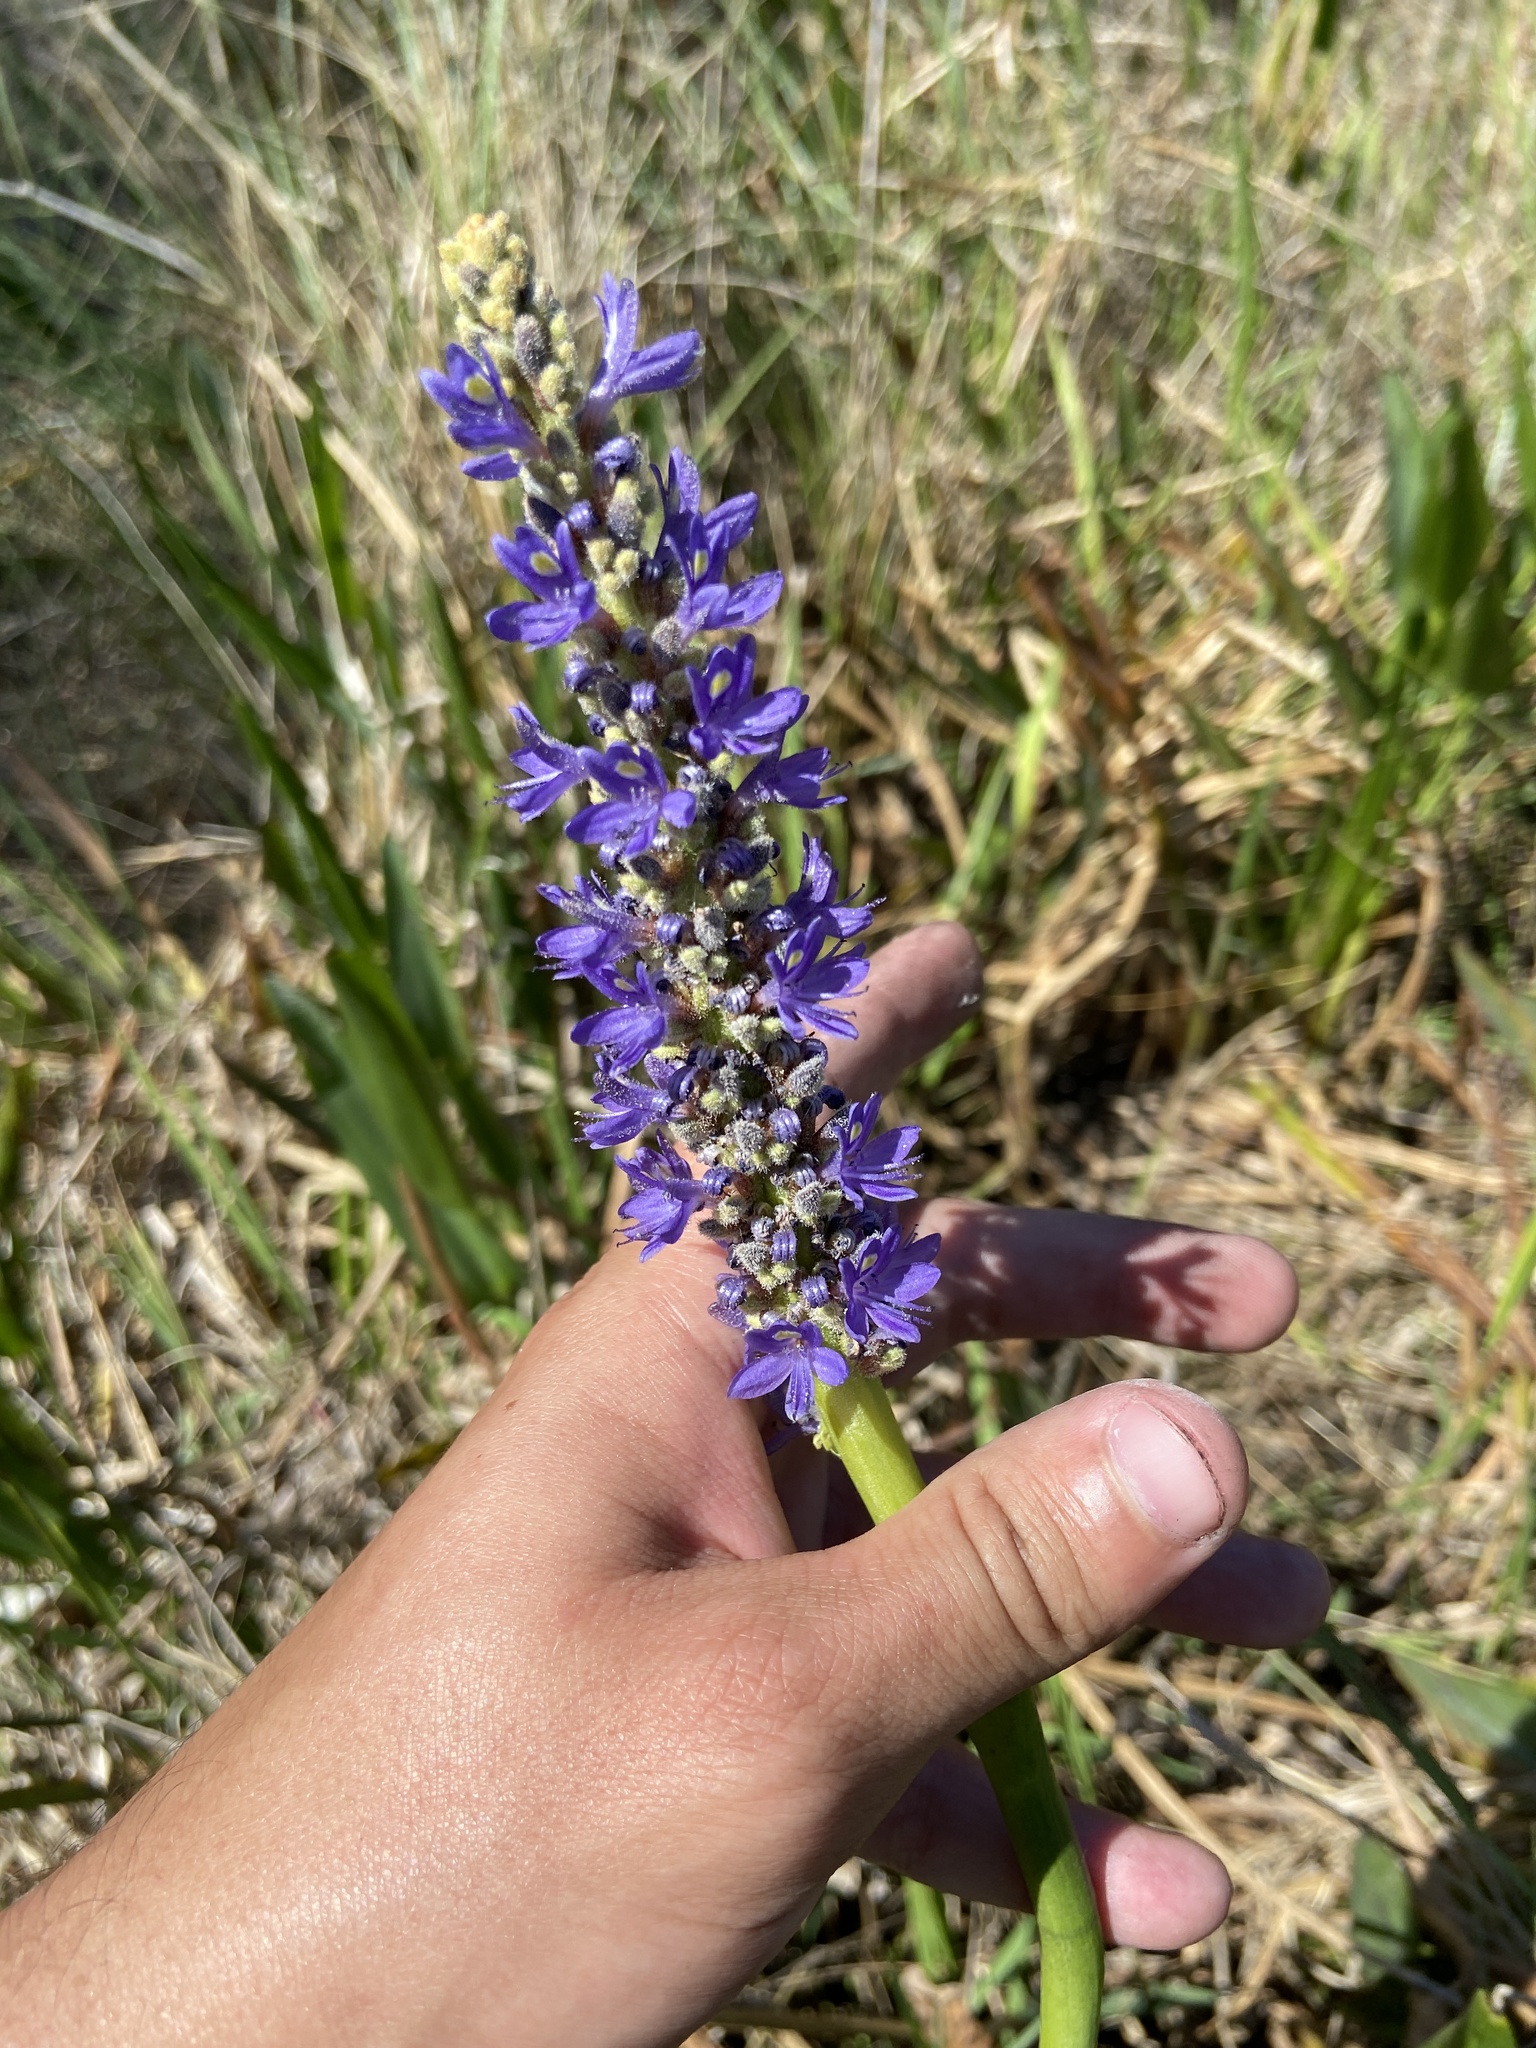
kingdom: Plantae
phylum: Tracheophyta
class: Liliopsida
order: Commelinales
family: Pontederiaceae
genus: Pontederia
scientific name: Pontederia cordata
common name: Pickerelweed
